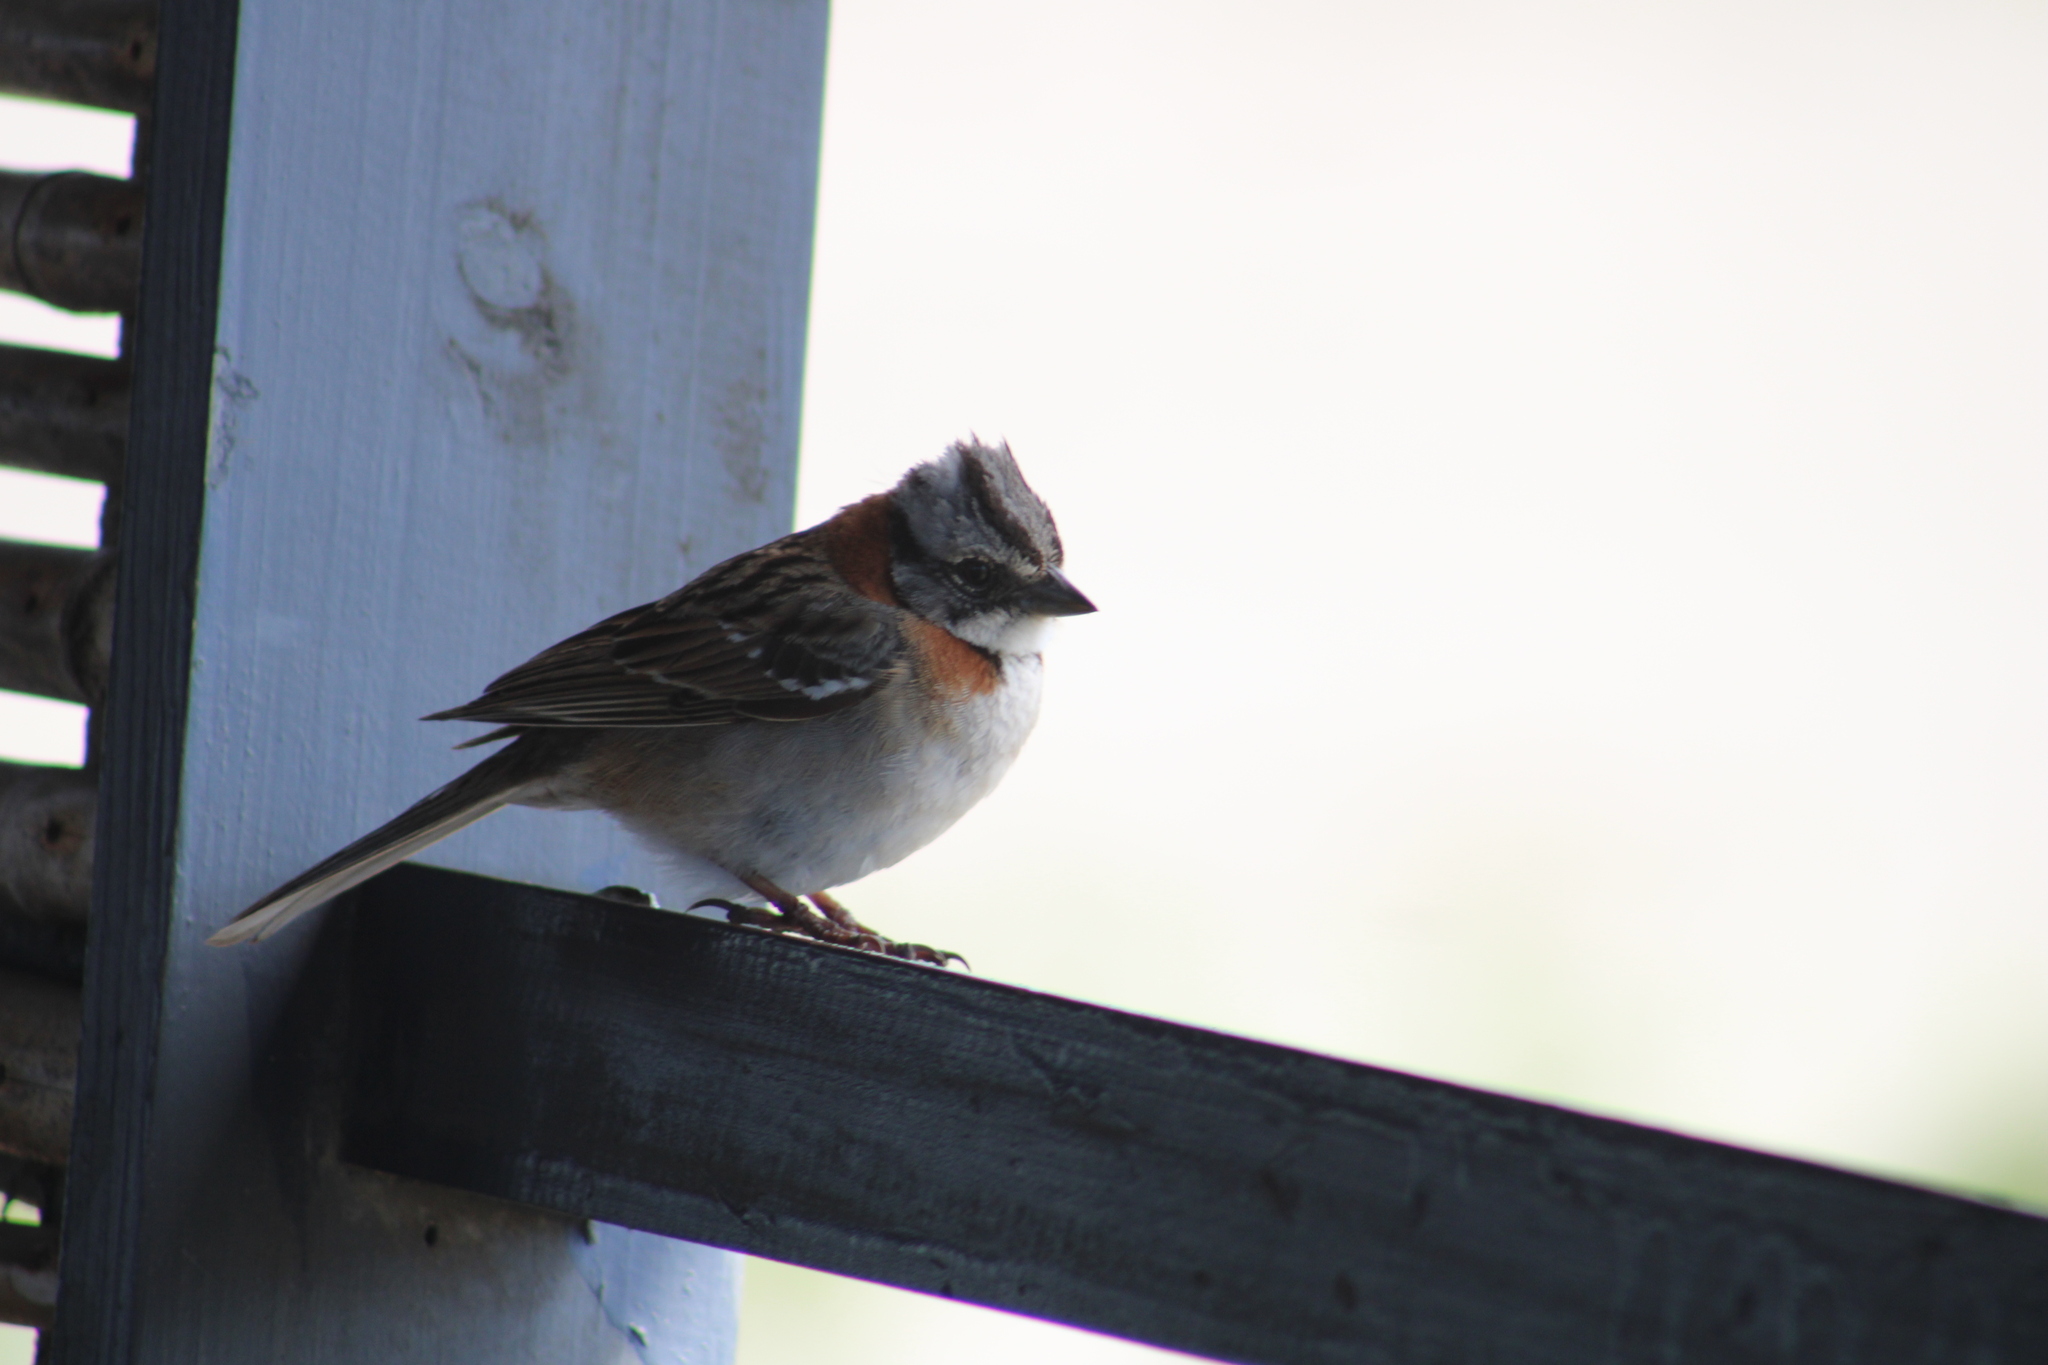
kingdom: Animalia
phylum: Chordata
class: Aves
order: Passeriformes
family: Passerellidae
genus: Zonotrichia
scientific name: Zonotrichia capensis
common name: Rufous-collared sparrow
